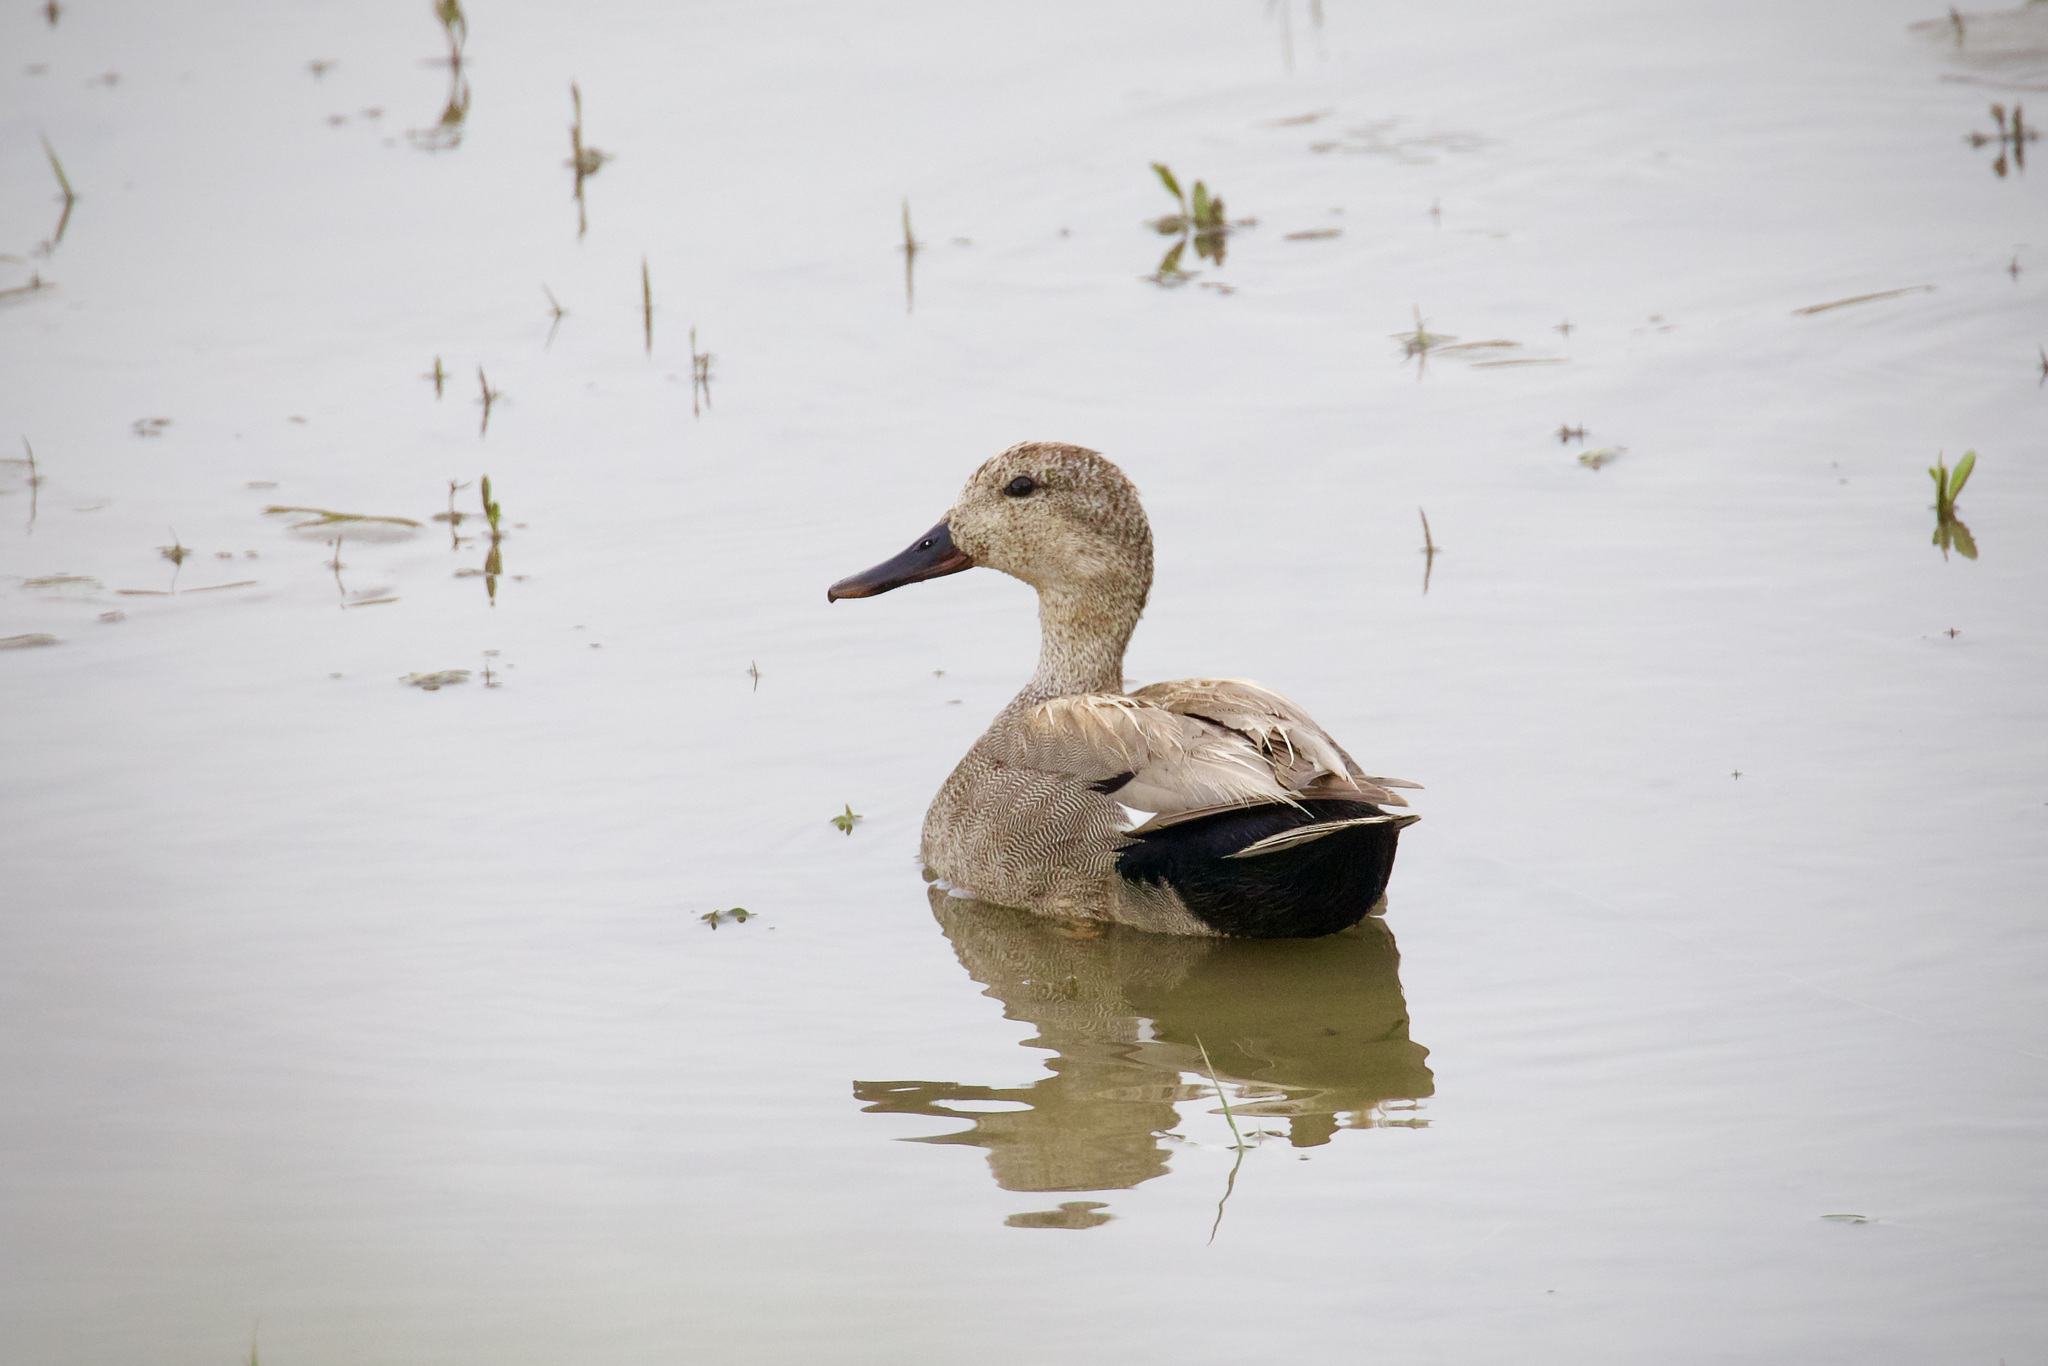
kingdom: Animalia
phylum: Chordata
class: Aves
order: Anseriformes
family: Anatidae
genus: Mareca
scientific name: Mareca strepera
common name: Gadwall
